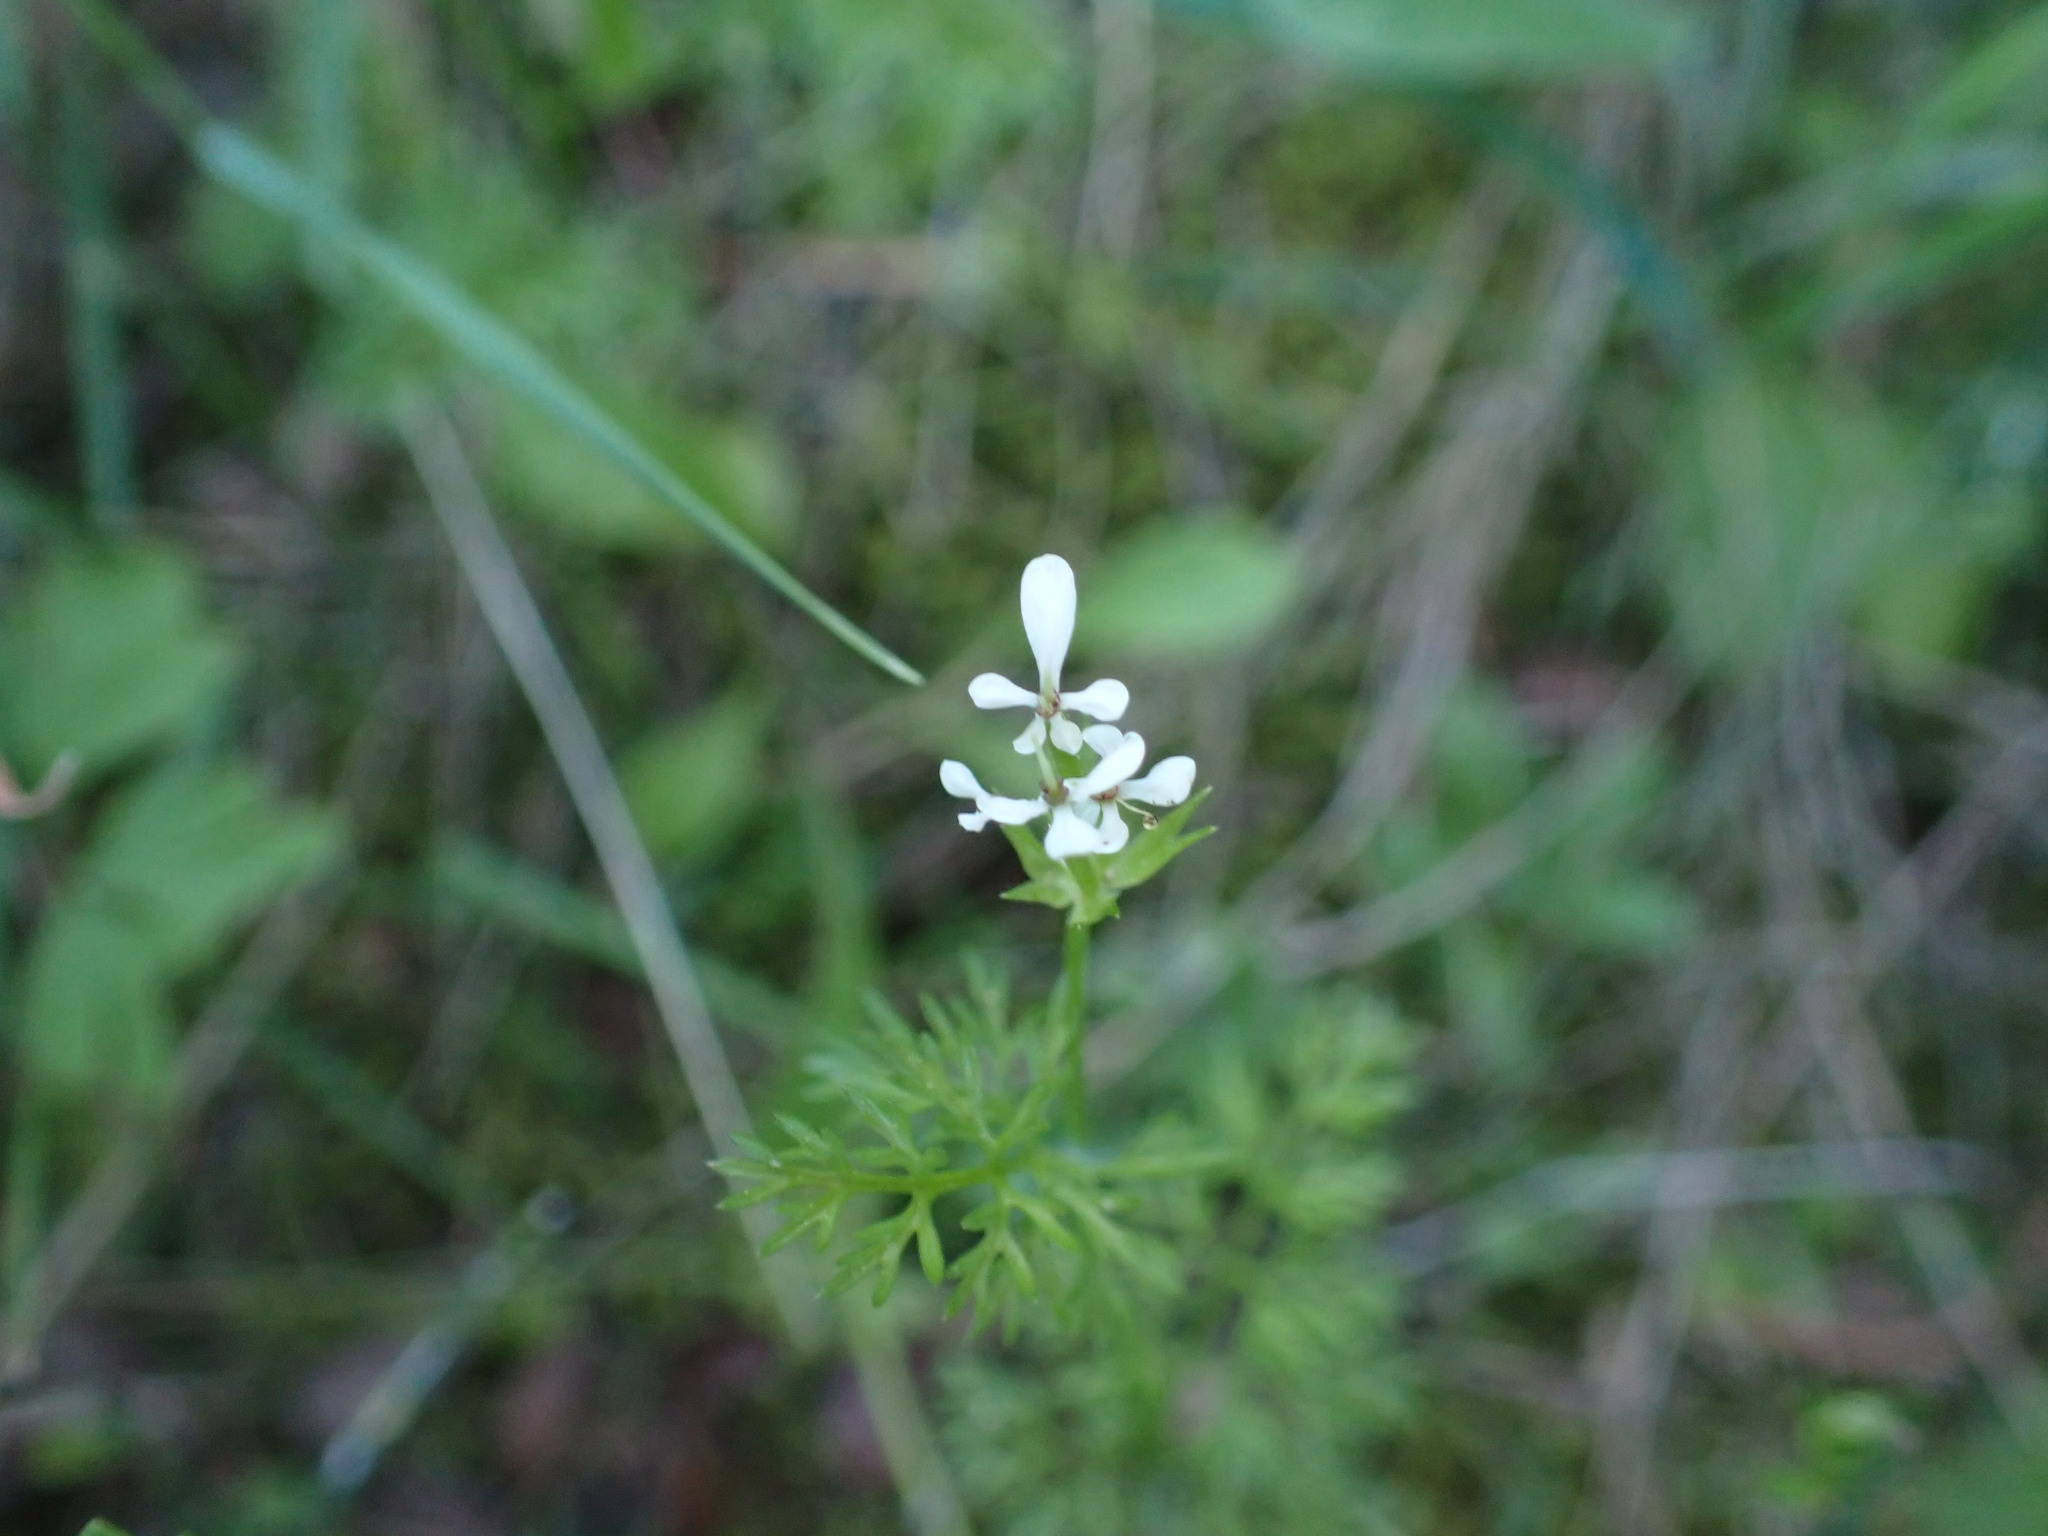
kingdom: Plantae
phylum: Tracheophyta
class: Magnoliopsida
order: Apiales
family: Apiaceae
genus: Scandix
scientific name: Scandix pecten-veneris
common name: Shepherd's-needle
